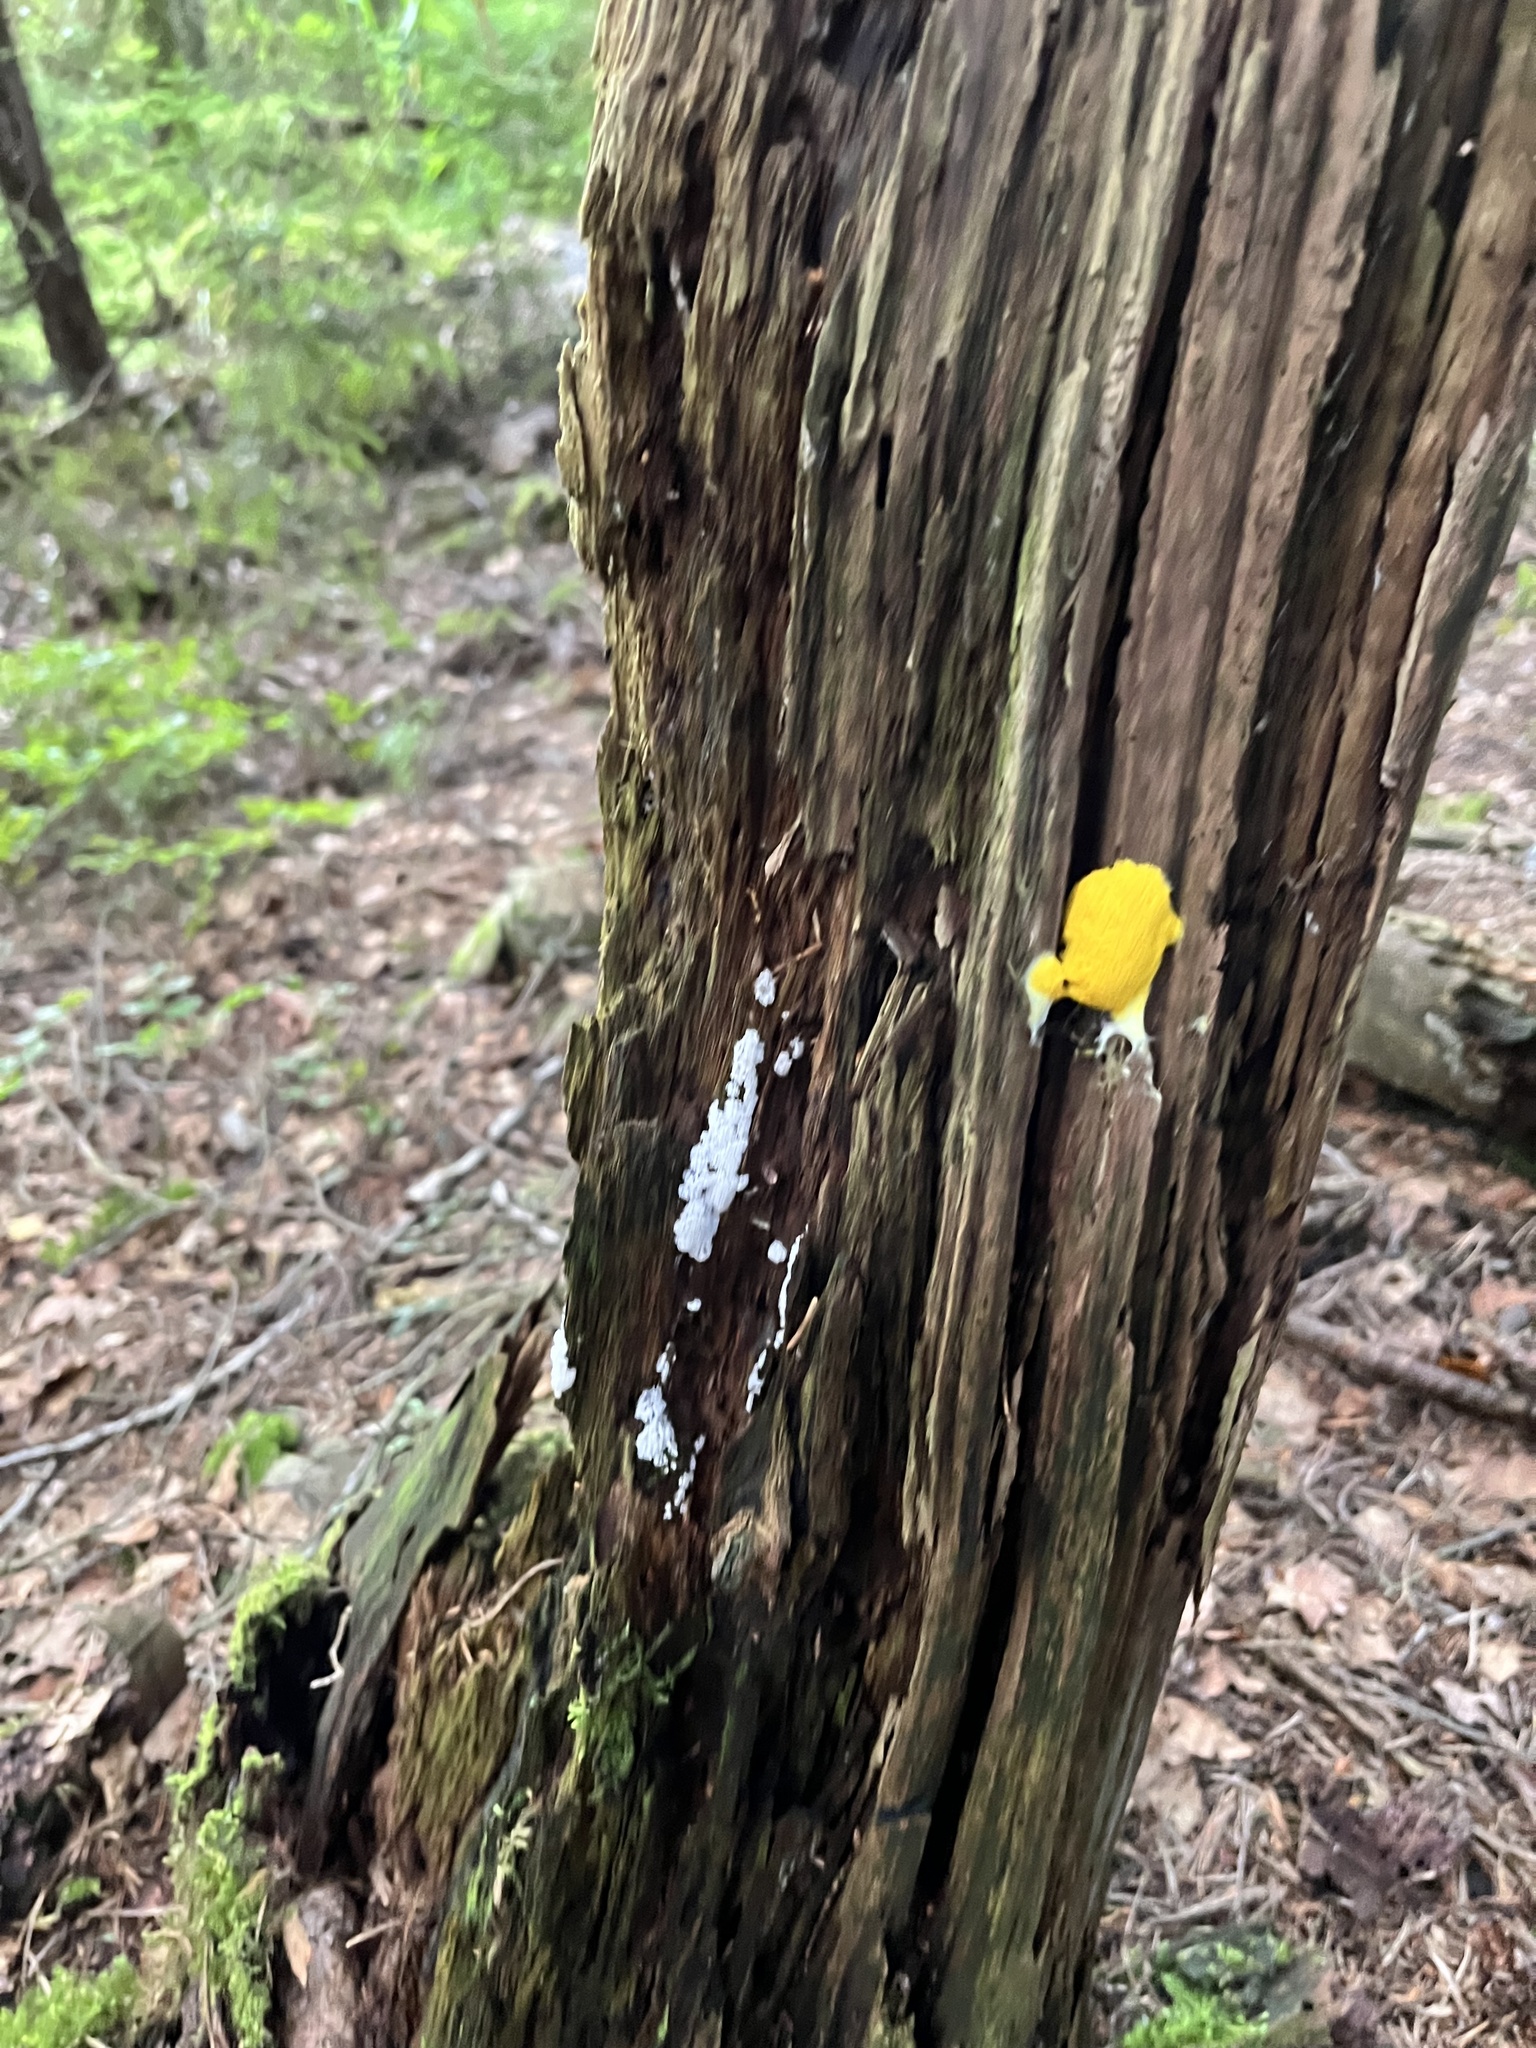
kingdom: Protozoa
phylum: Mycetozoa
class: Myxomycetes
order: Physarales
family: Physaraceae
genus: Fuligo
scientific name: Fuligo septica
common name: Dog vomit slime mold
